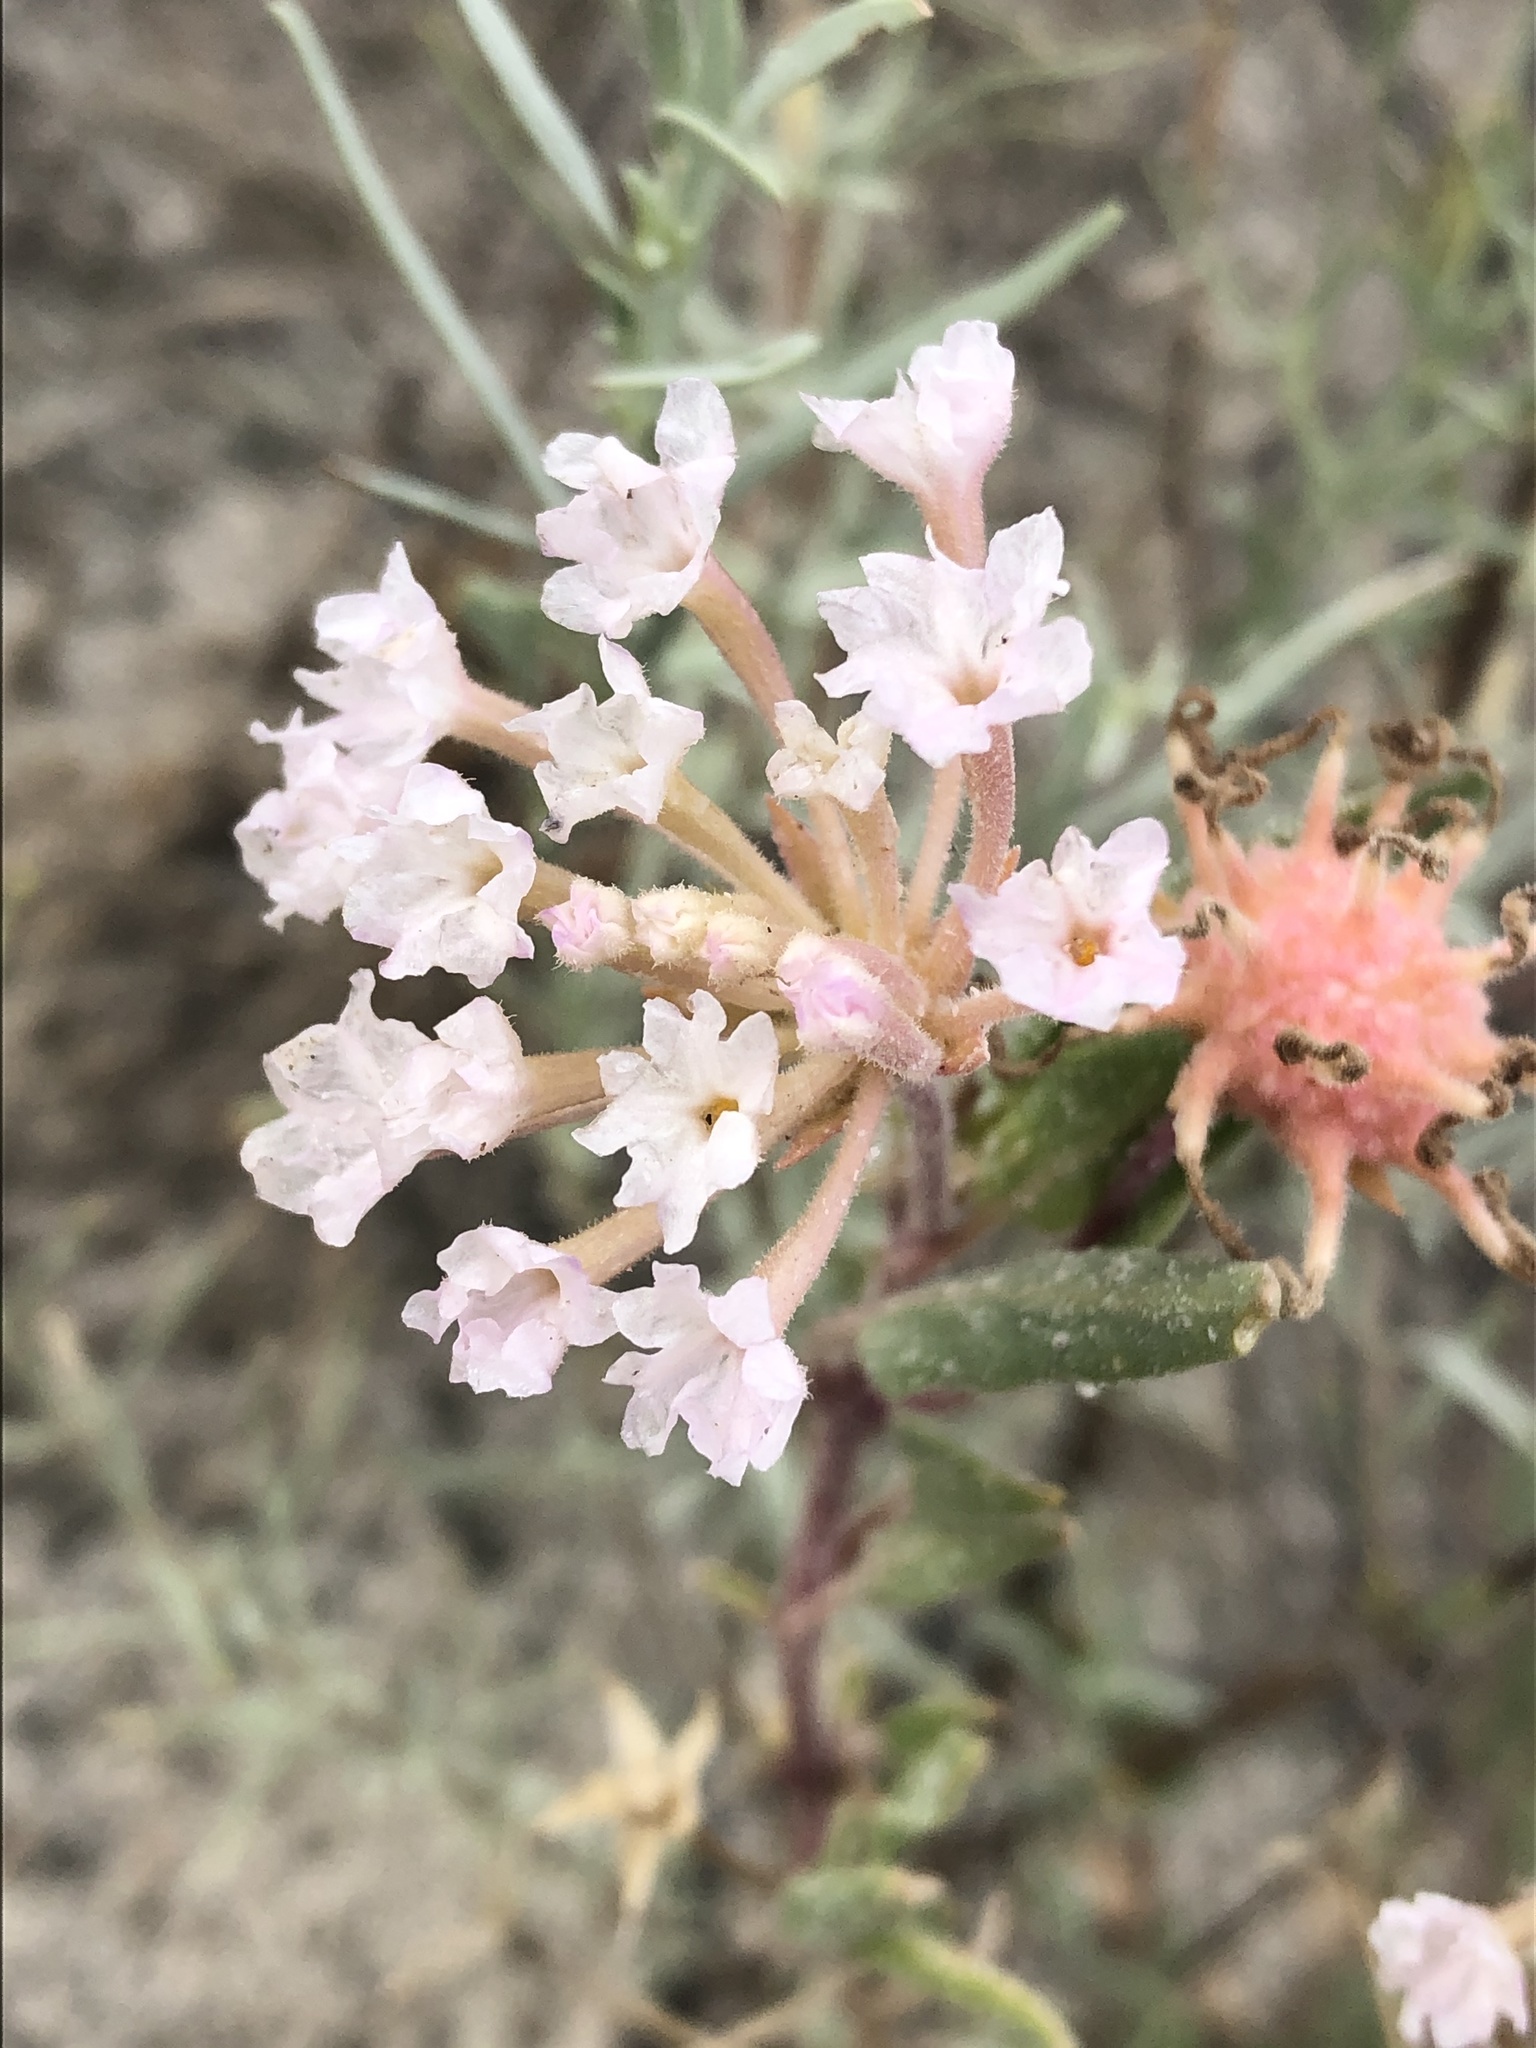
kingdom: Plantae
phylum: Tracheophyta
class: Magnoliopsida
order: Caryophyllales
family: Nyctaginaceae
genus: Abronia
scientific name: Abronia angustifolia
